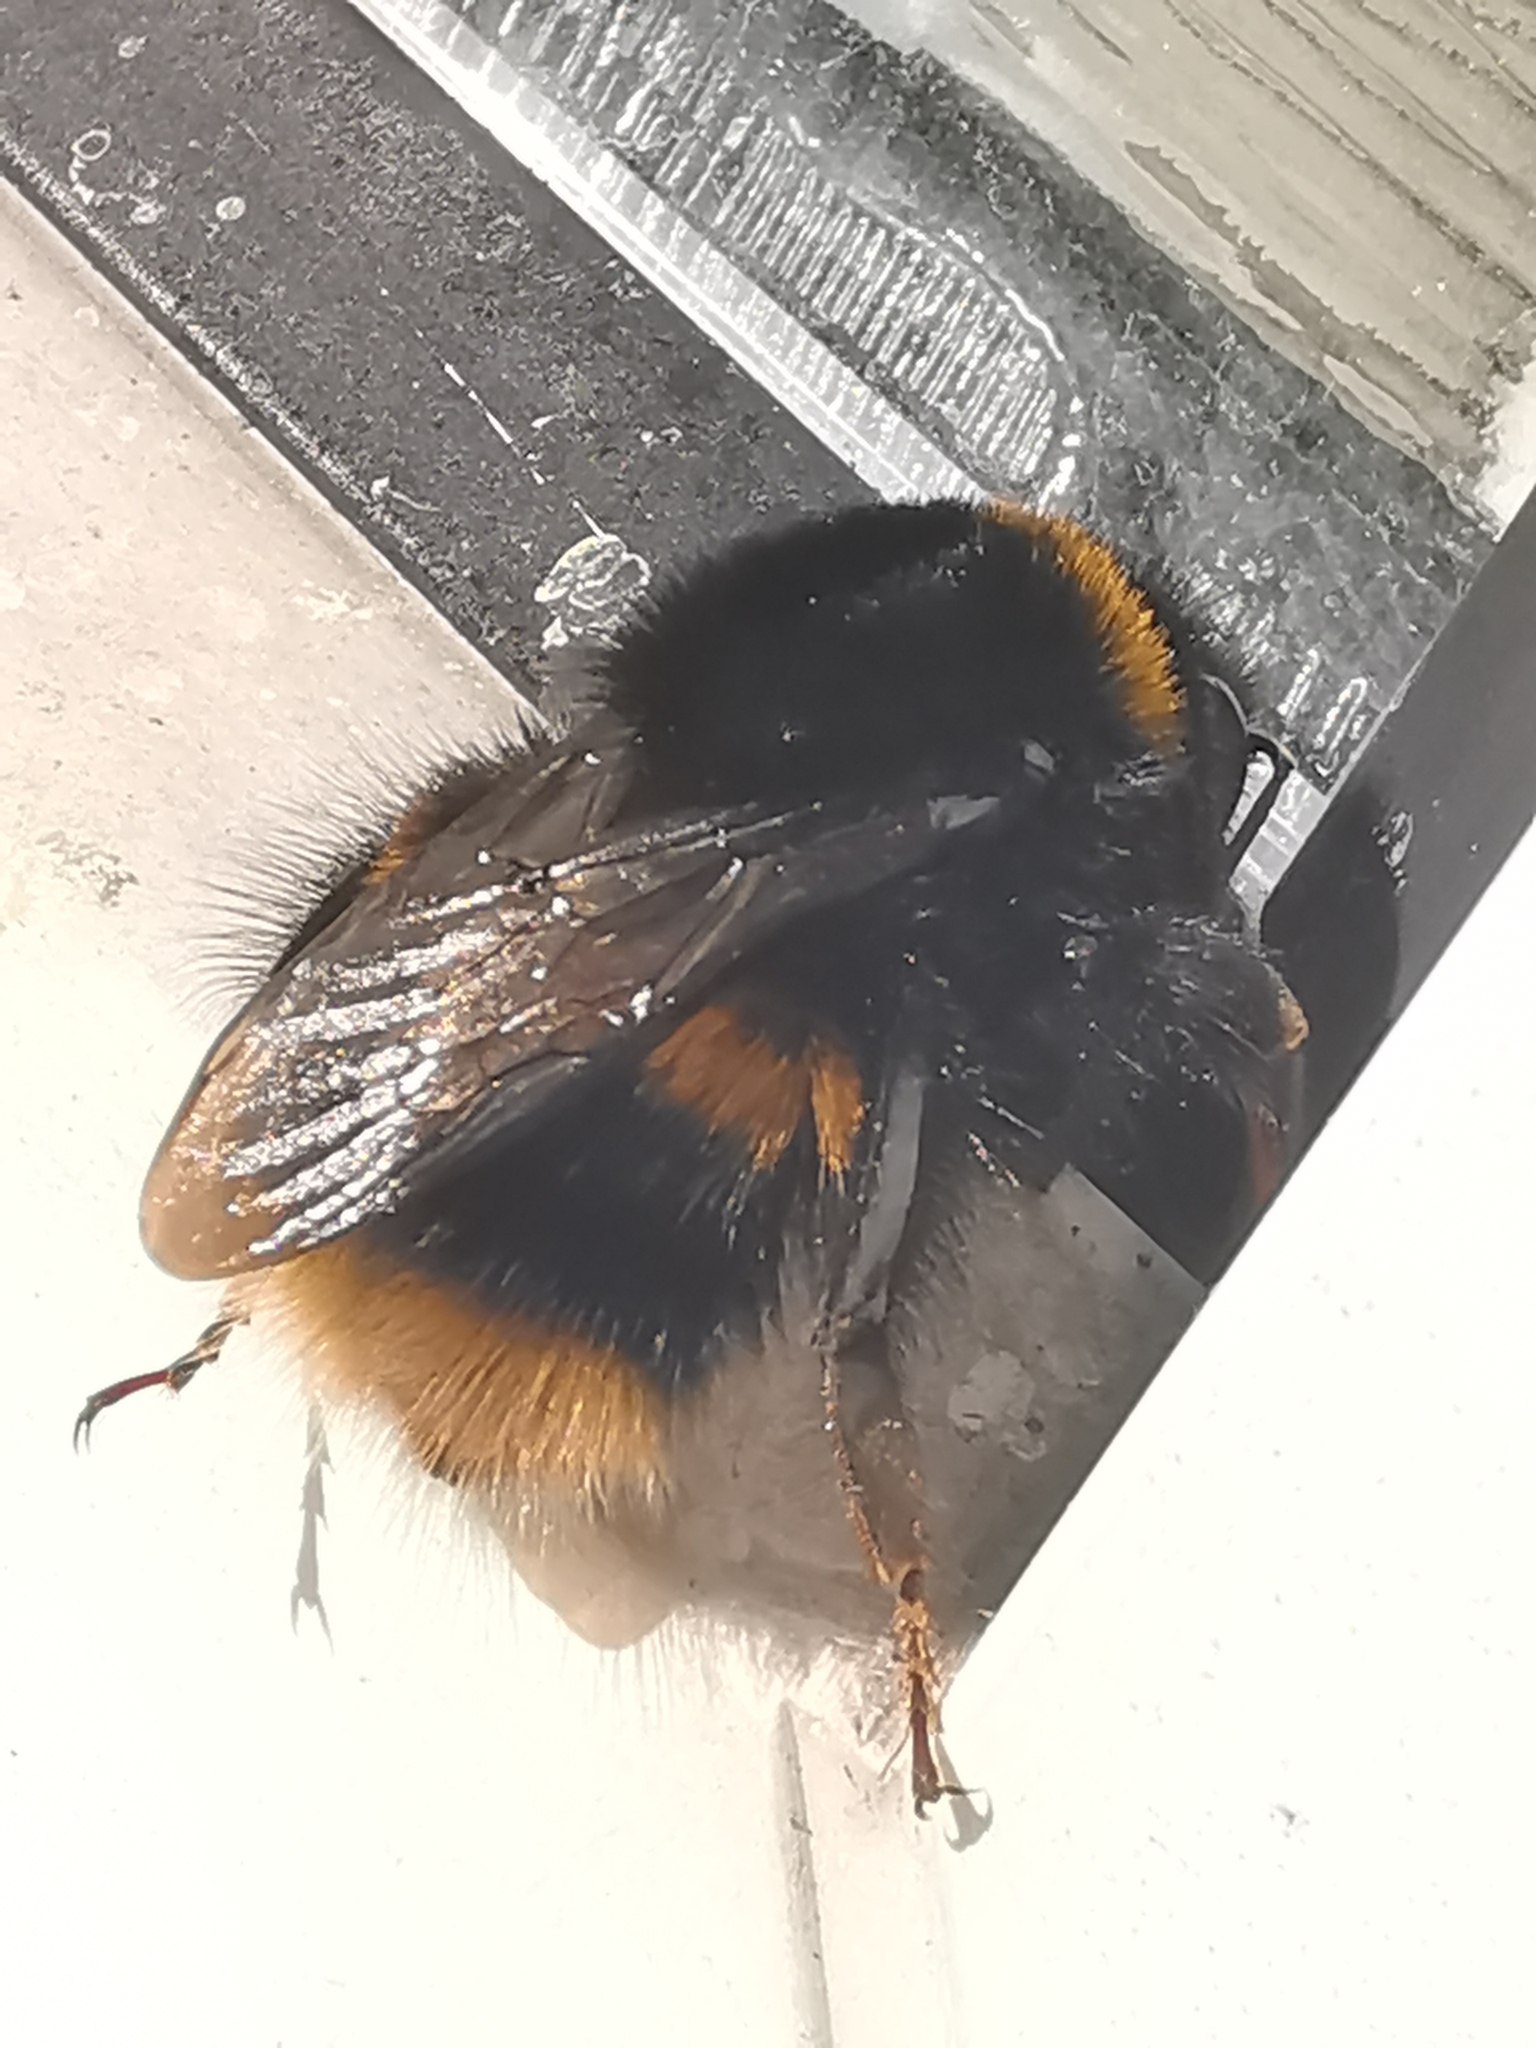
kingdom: Animalia
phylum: Arthropoda
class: Insecta
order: Hymenoptera
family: Apidae
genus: Bombus
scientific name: Bombus terrestris
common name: Buff-tailed bumblebee
